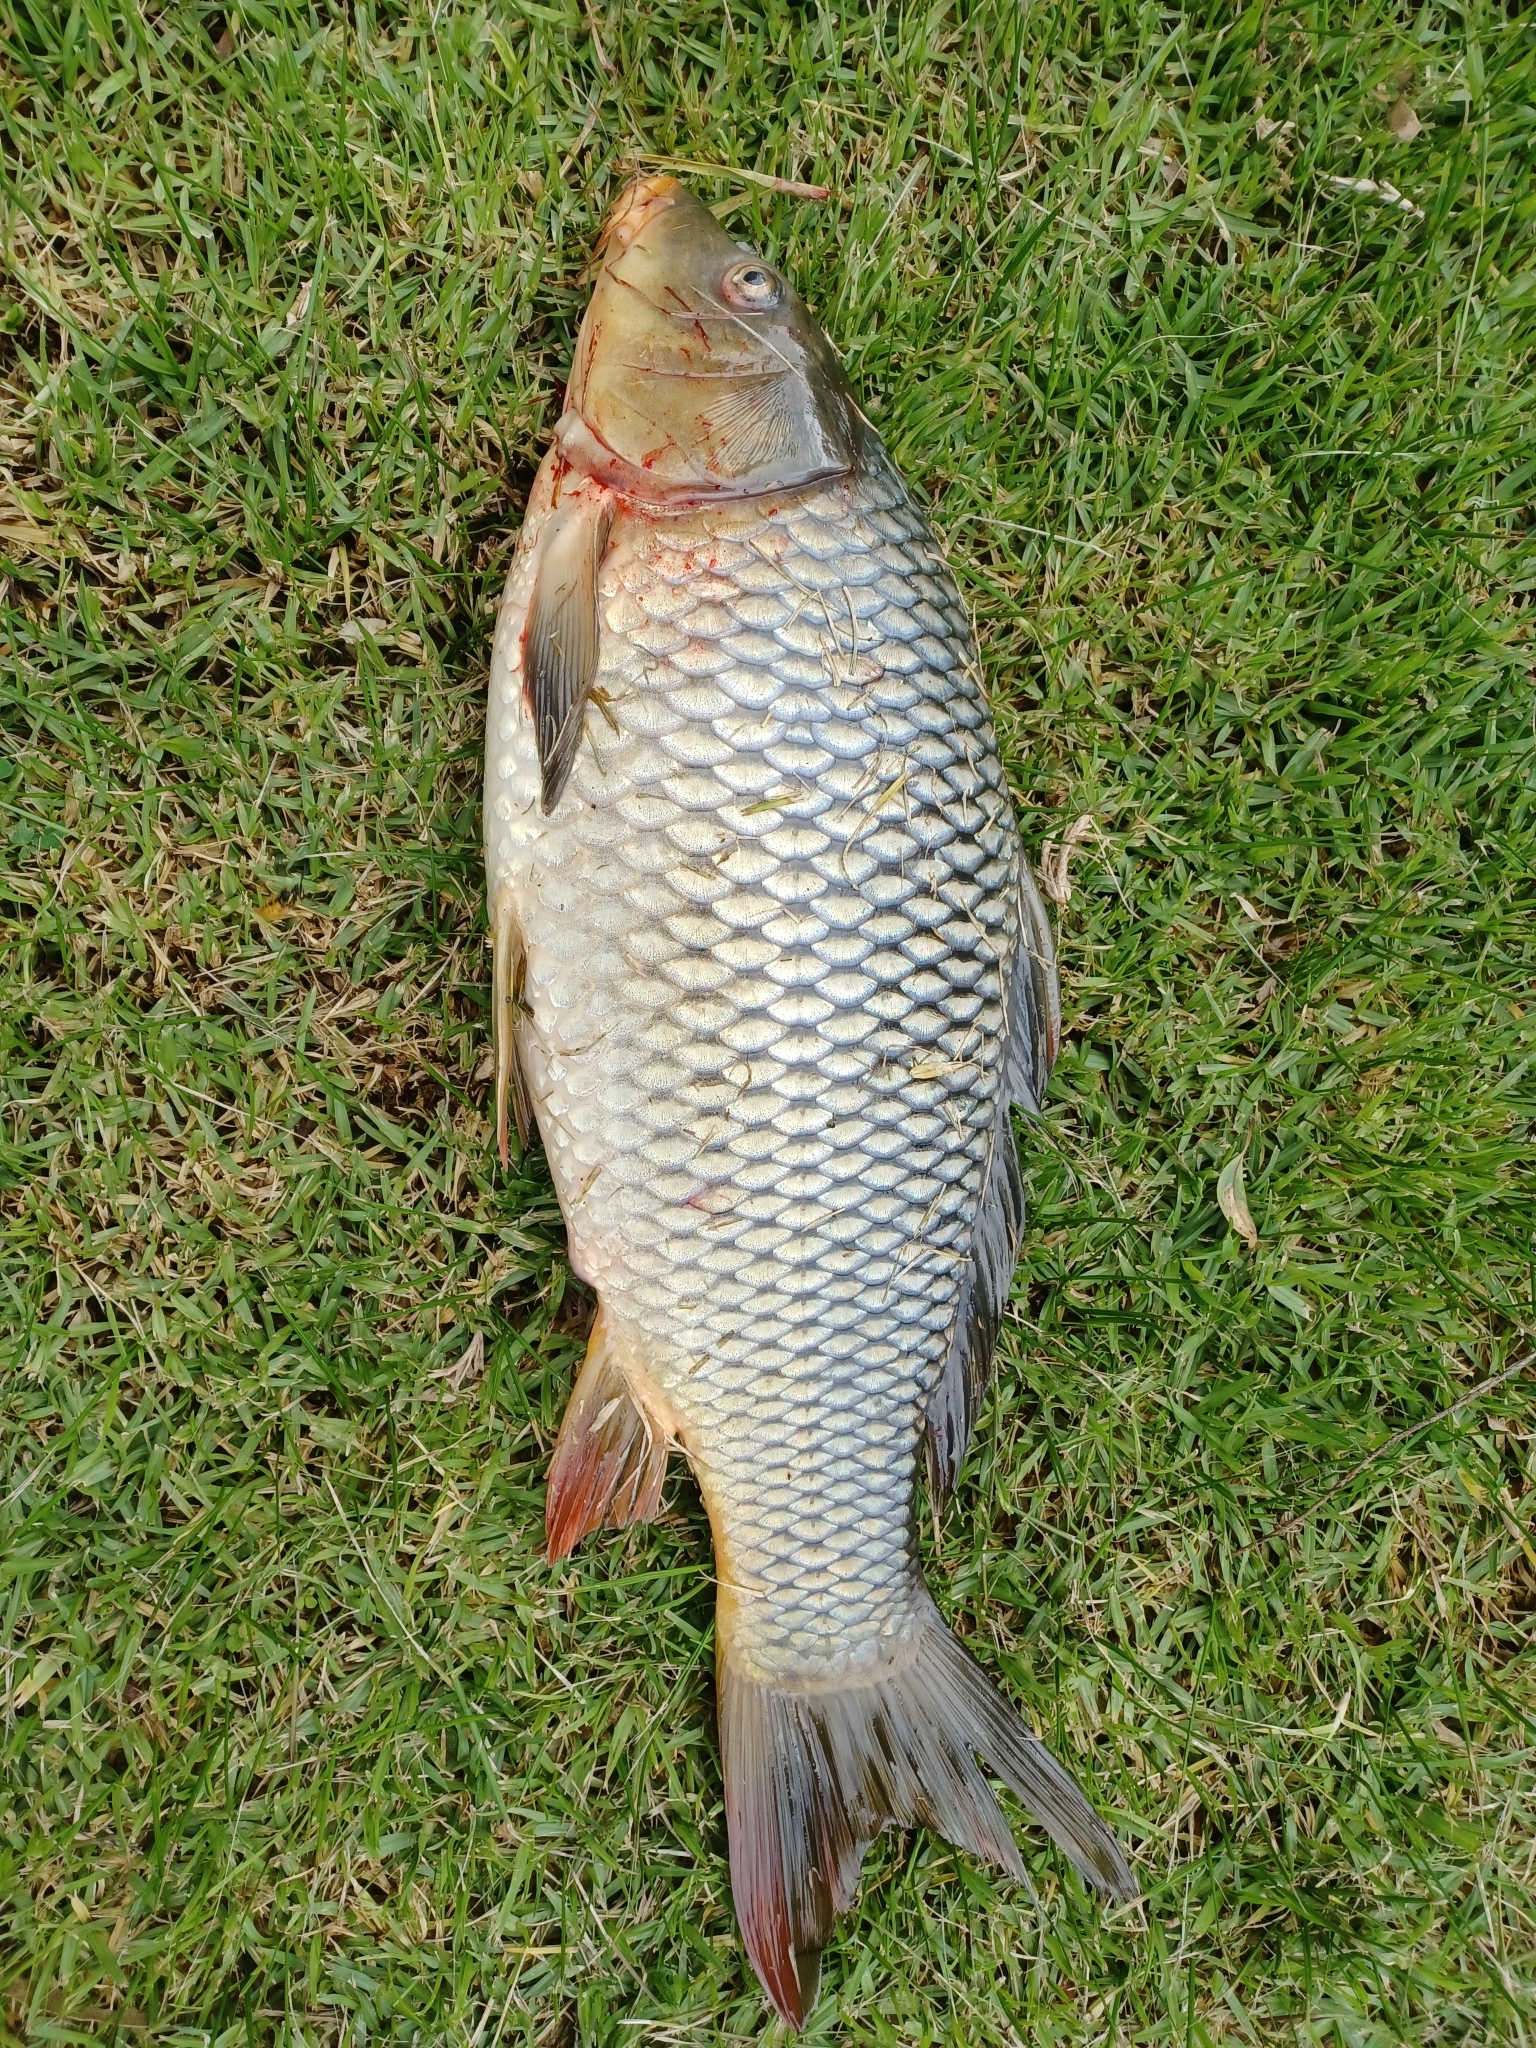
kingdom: Animalia
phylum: Chordata
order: Cypriniformes
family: Cyprinidae
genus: Cyprinus
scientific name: Cyprinus carpio
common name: Common carp
